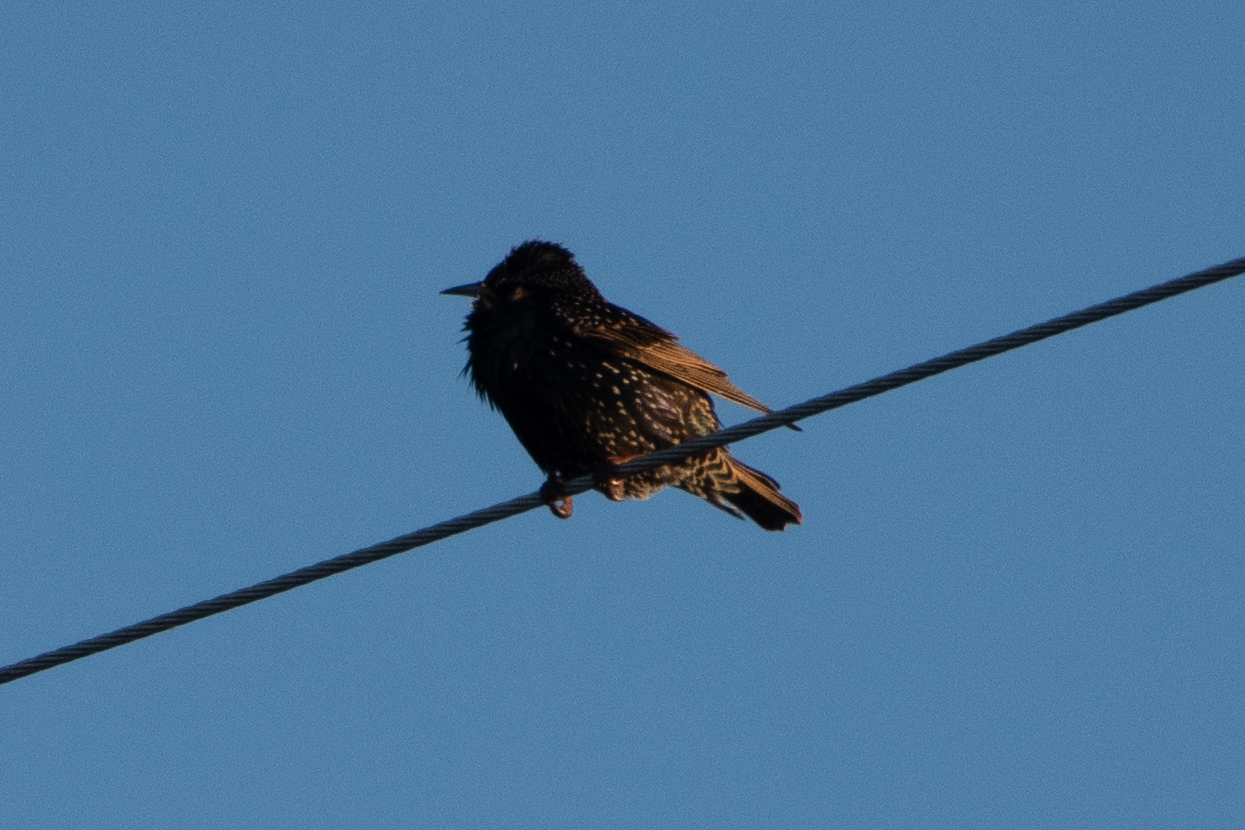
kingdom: Animalia
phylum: Chordata
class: Aves
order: Passeriformes
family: Sturnidae
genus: Sturnus
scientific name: Sturnus vulgaris
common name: Common starling
